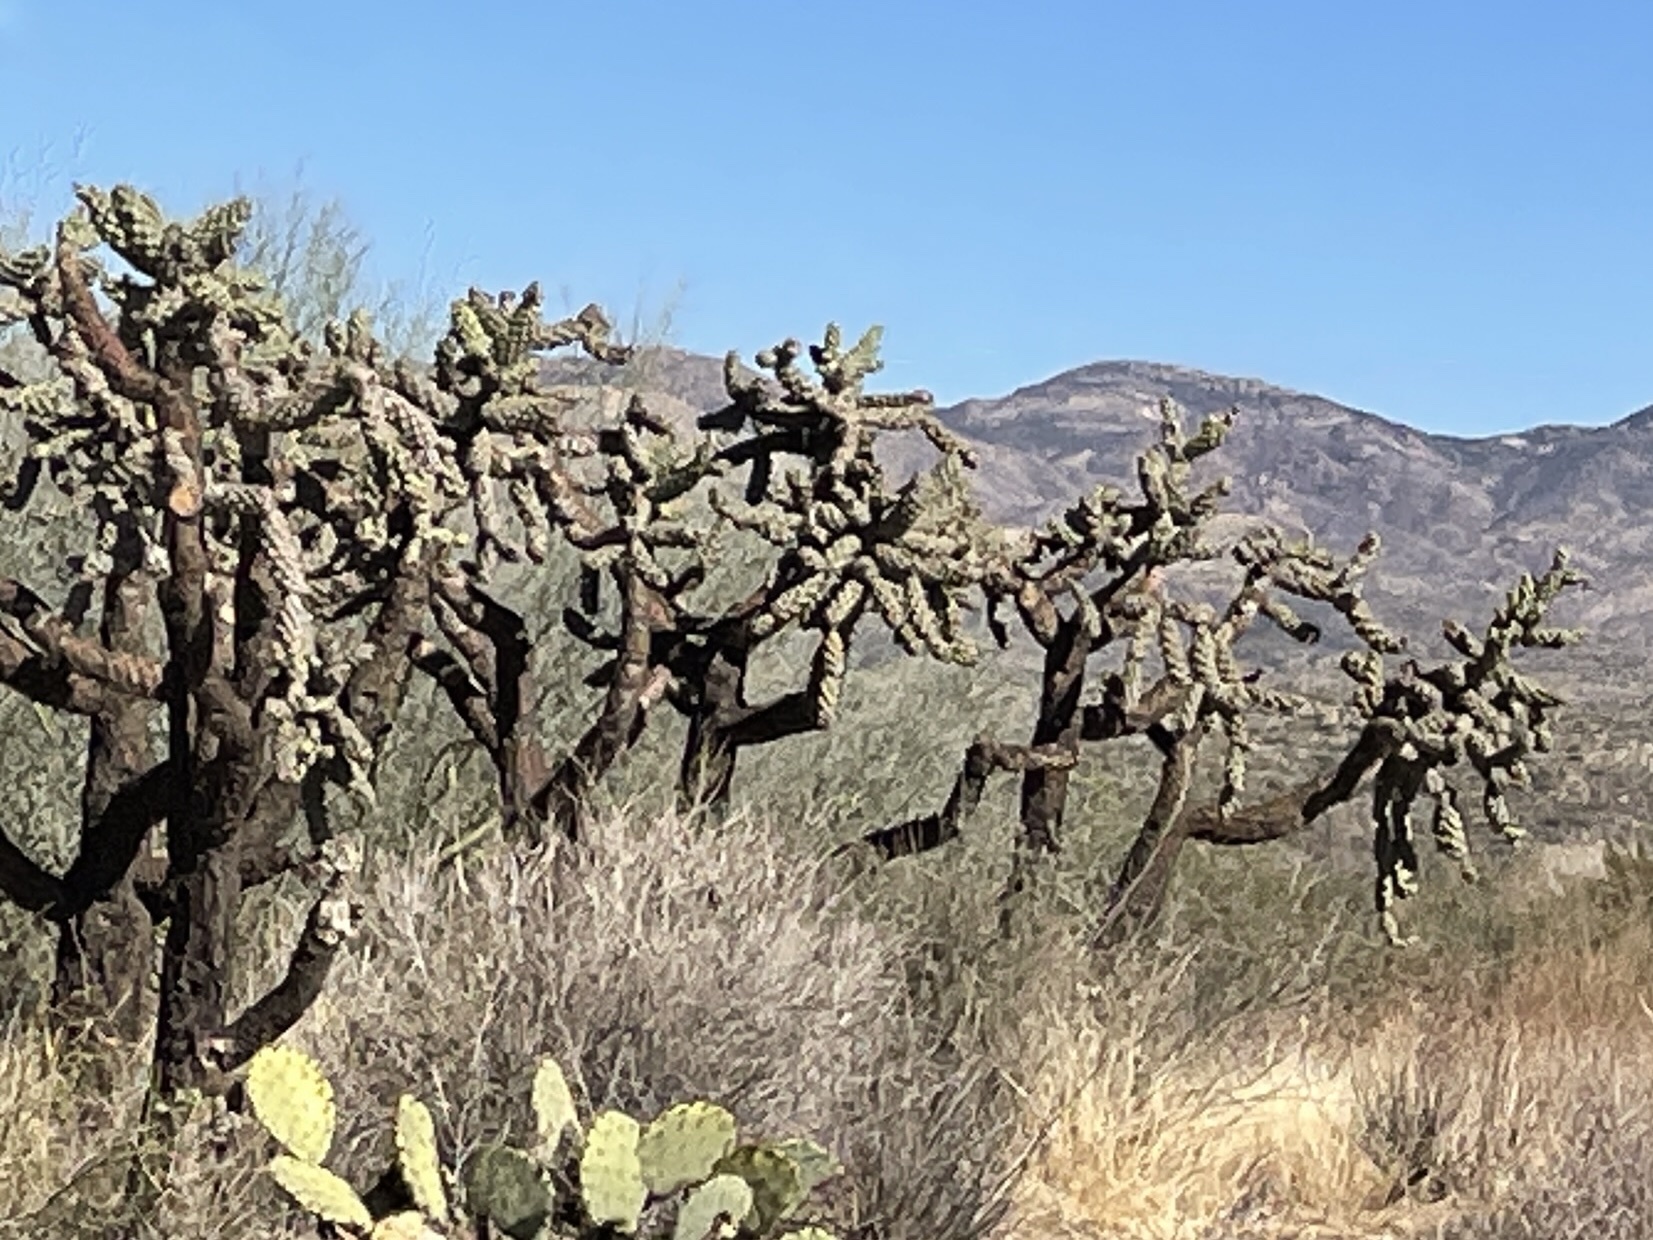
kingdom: Plantae
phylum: Tracheophyta
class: Magnoliopsida
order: Caryophyllales
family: Cactaceae
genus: Cylindropuntia
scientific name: Cylindropuntia fulgida
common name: Jumping cholla
